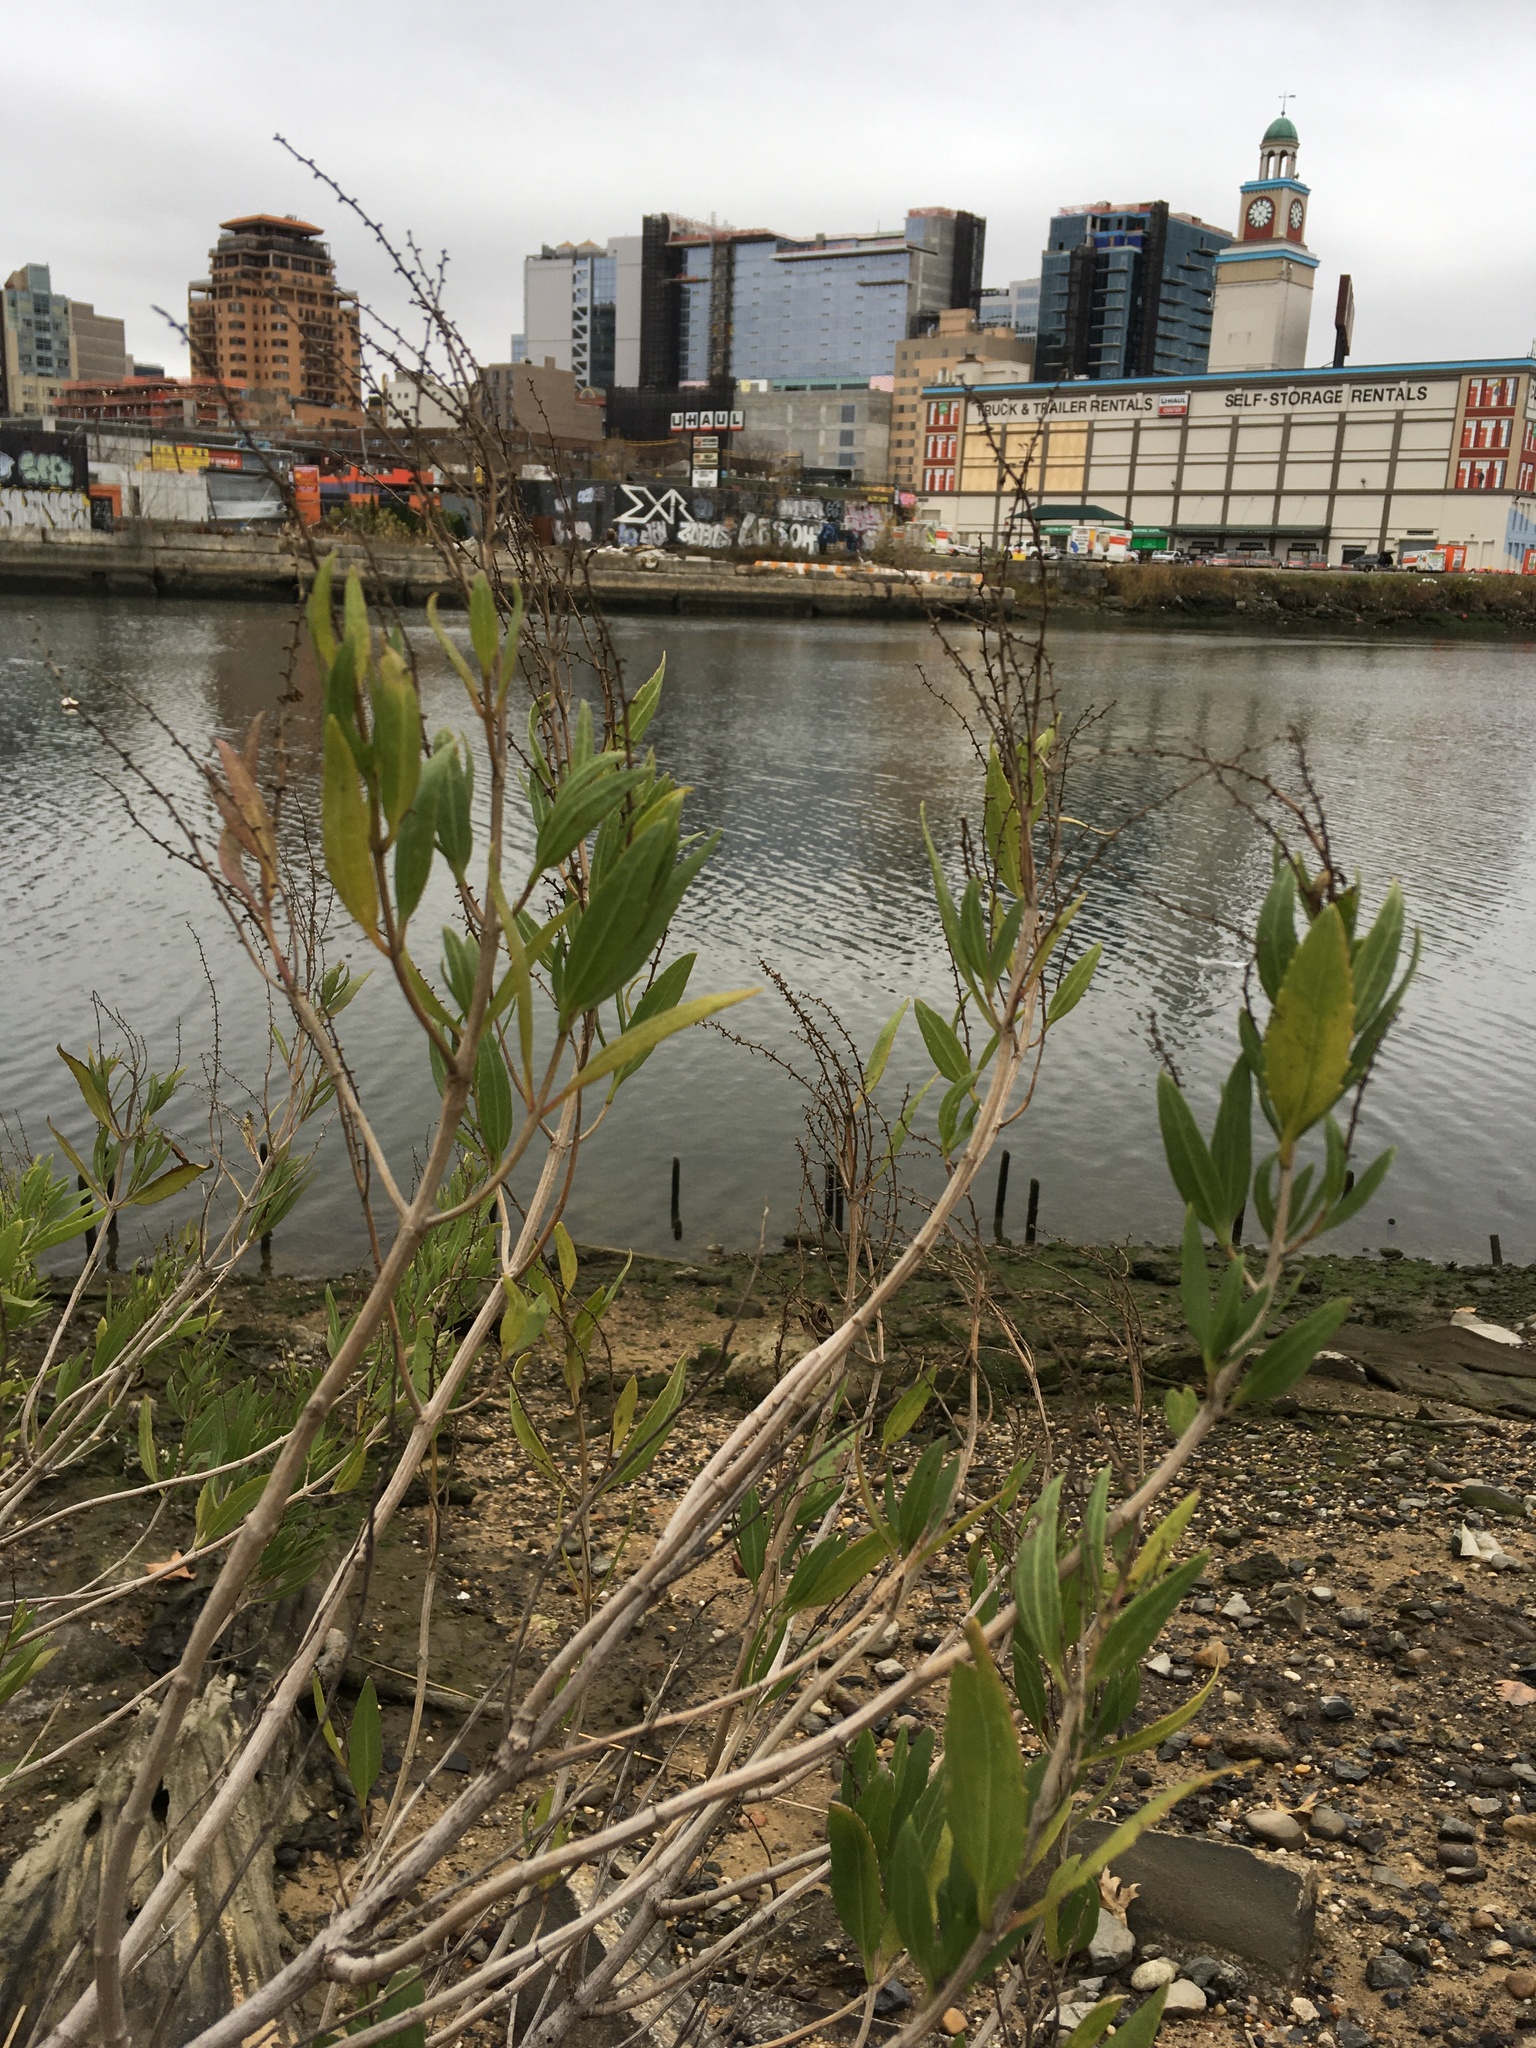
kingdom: Plantae
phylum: Tracheophyta
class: Magnoliopsida
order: Asterales
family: Asteraceae
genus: Iva
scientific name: Iva frutescens
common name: Big-leaved marsh-elder
